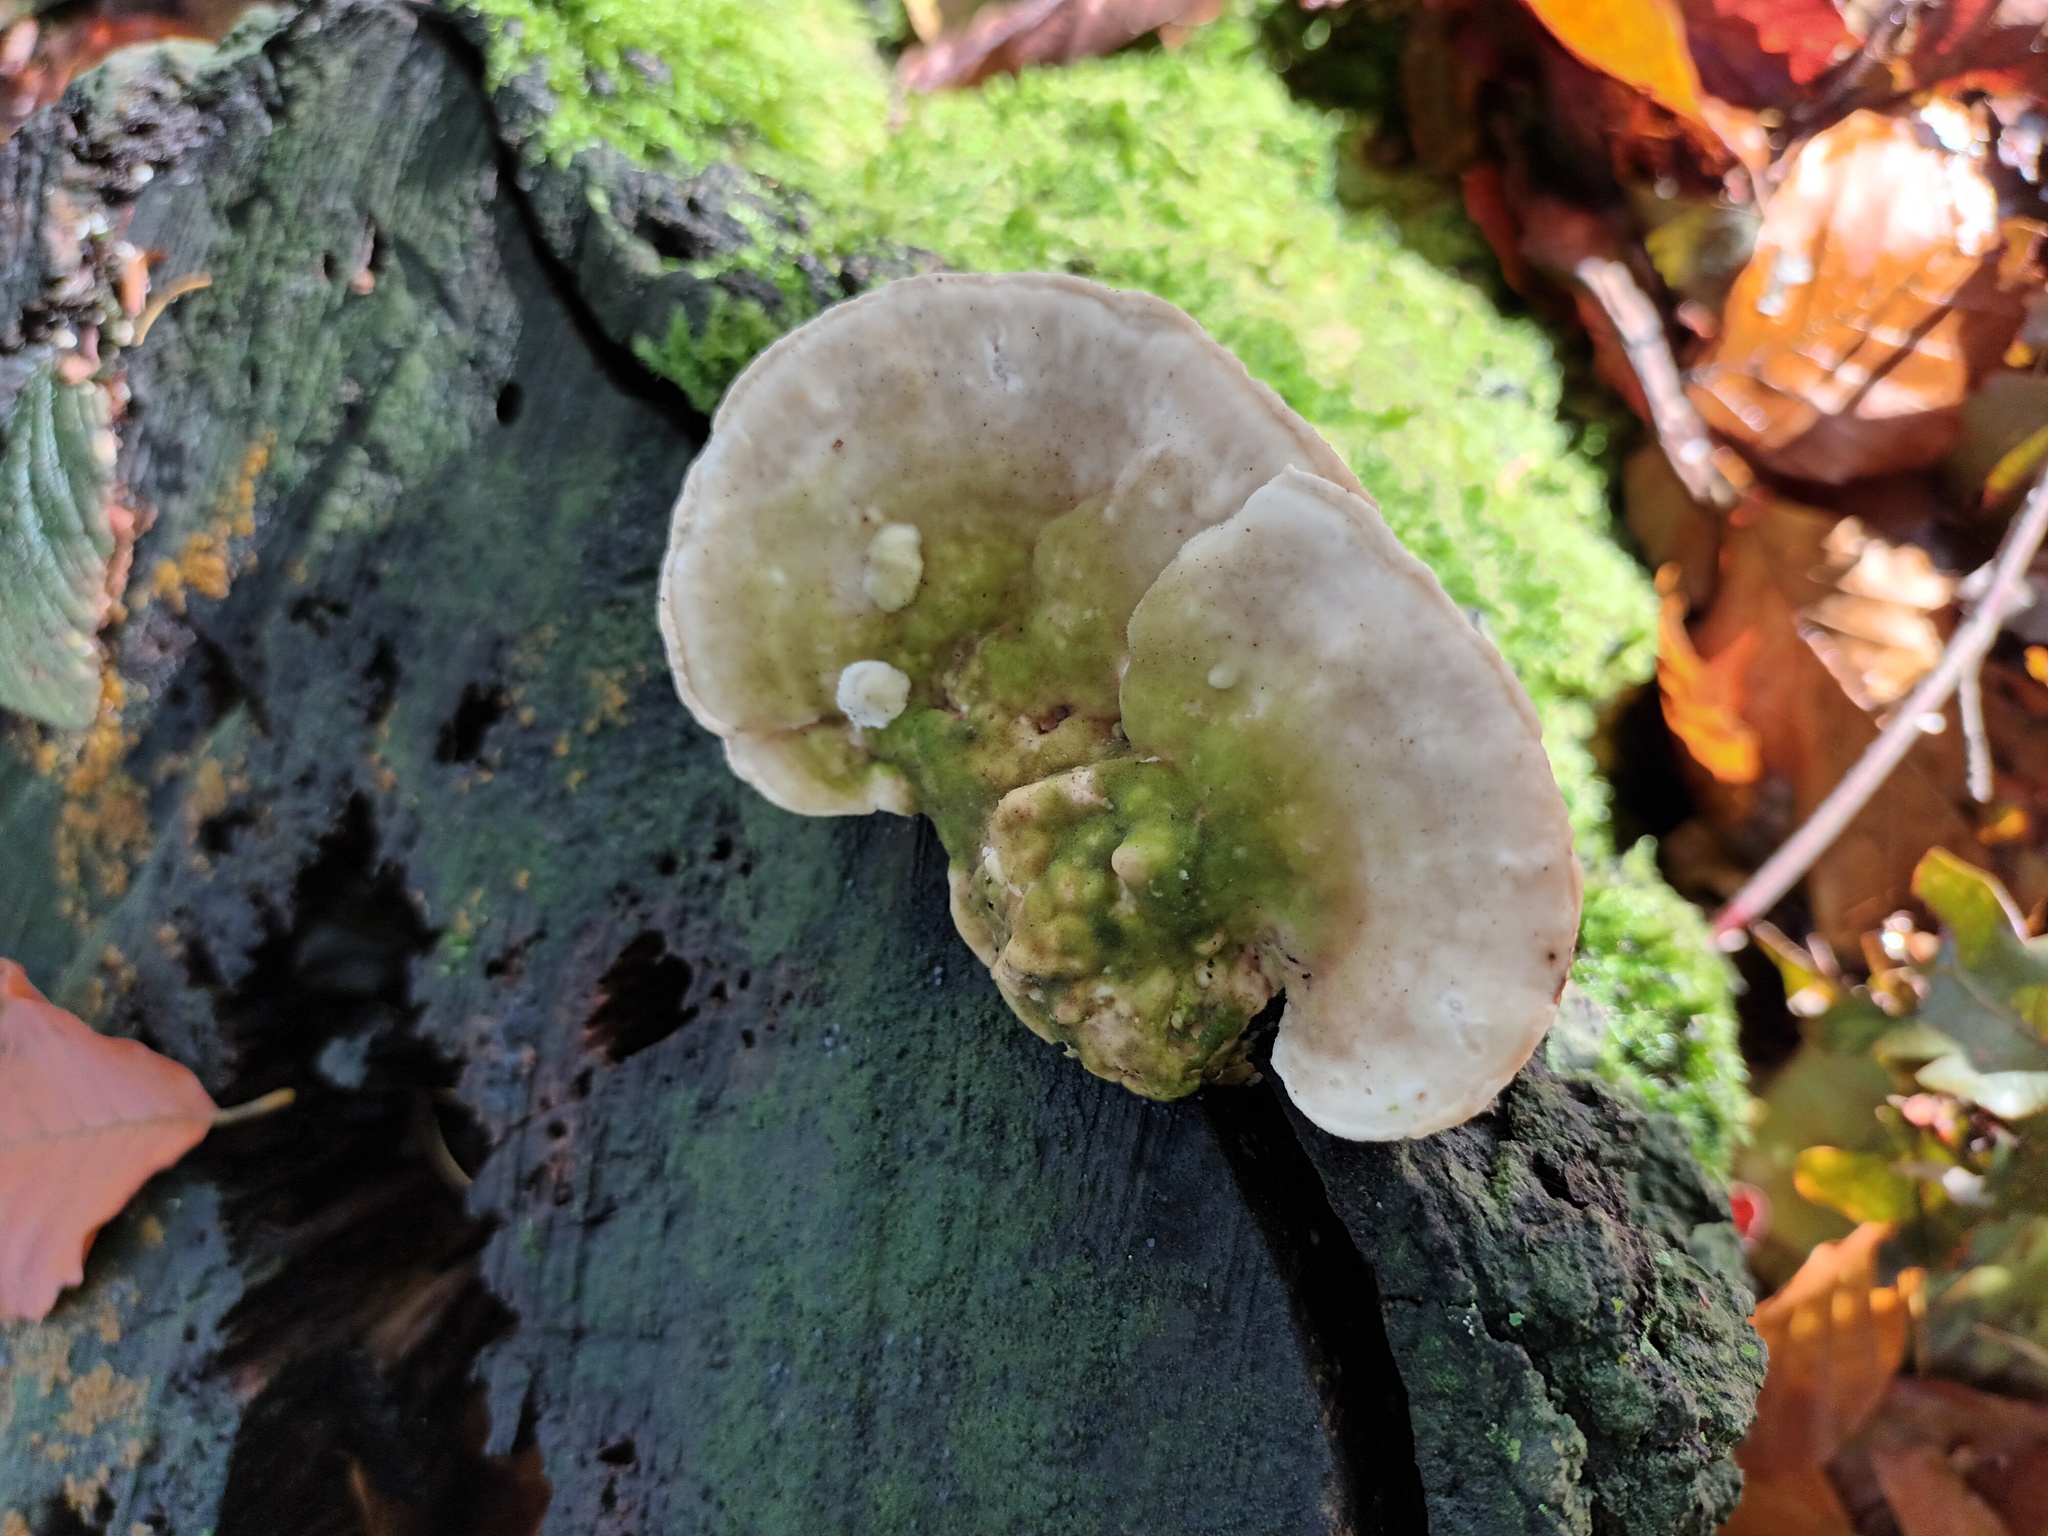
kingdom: Fungi
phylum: Basidiomycota
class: Agaricomycetes
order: Polyporales
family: Polyporaceae
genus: Trametes
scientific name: Trametes gibbosa
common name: Lumpy bracket
